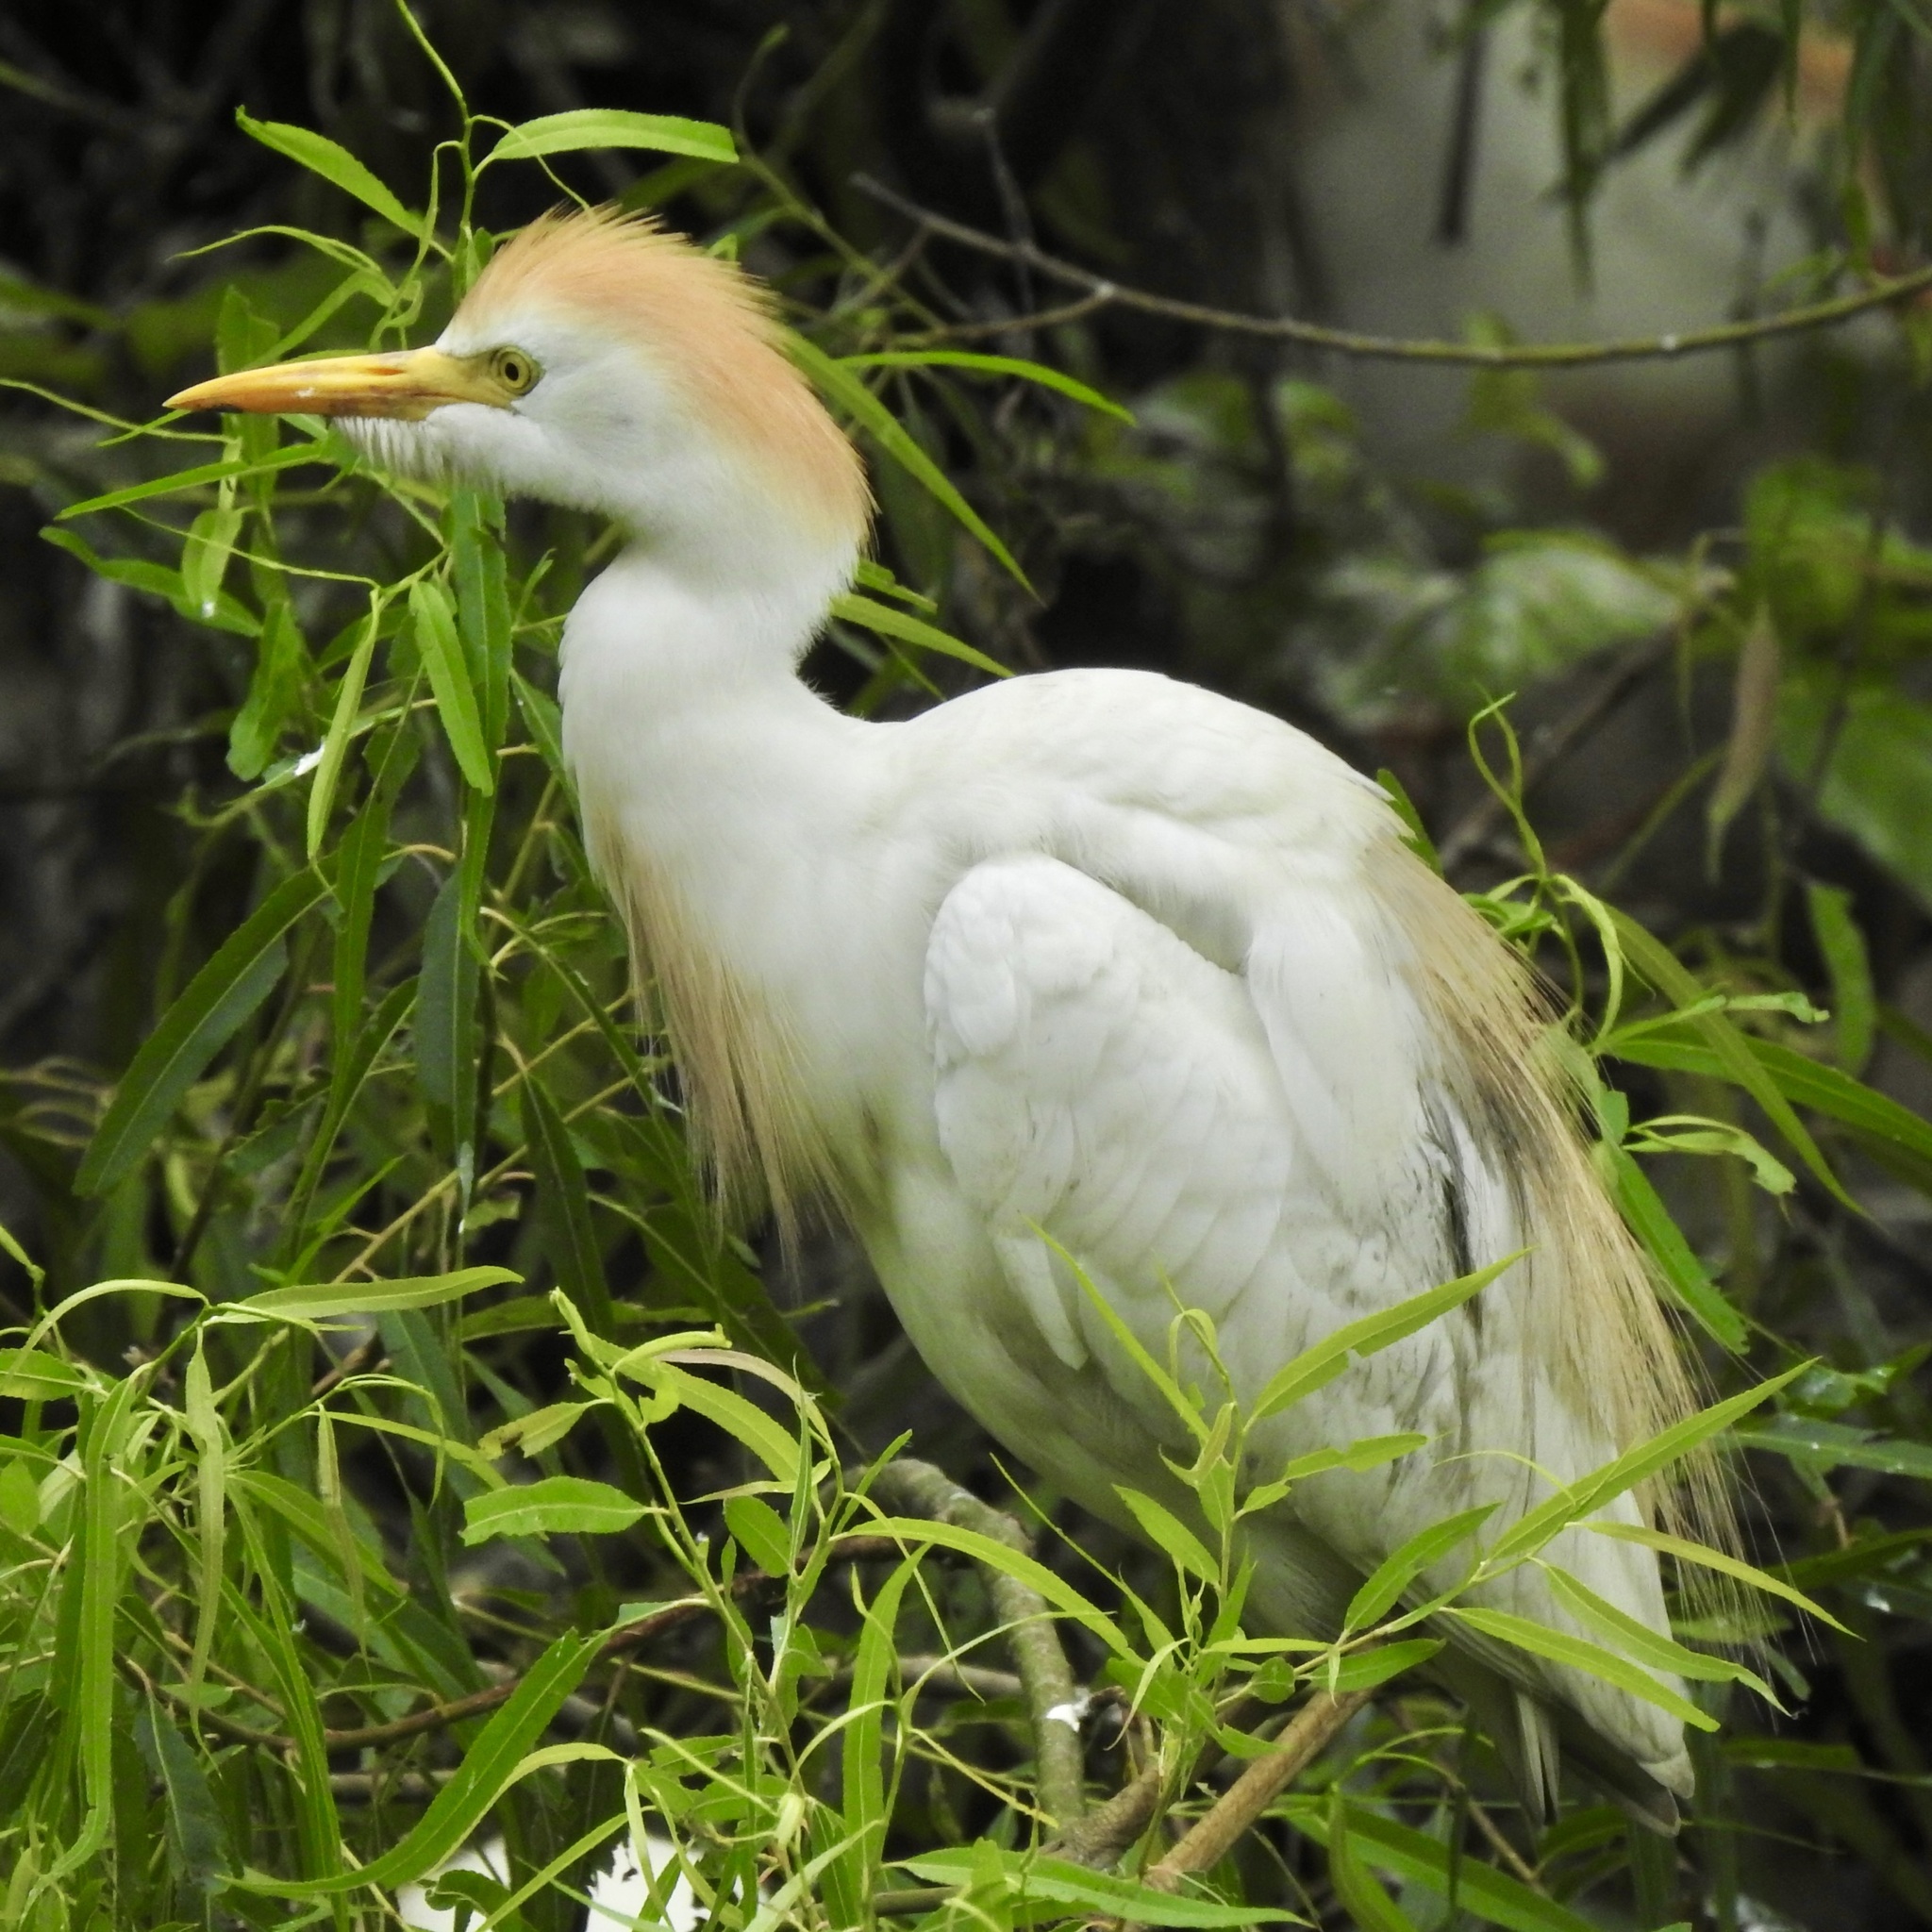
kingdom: Animalia
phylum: Chordata
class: Aves
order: Pelecaniformes
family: Ardeidae
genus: Bubulcus
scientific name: Bubulcus ibis
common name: Cattle egret
